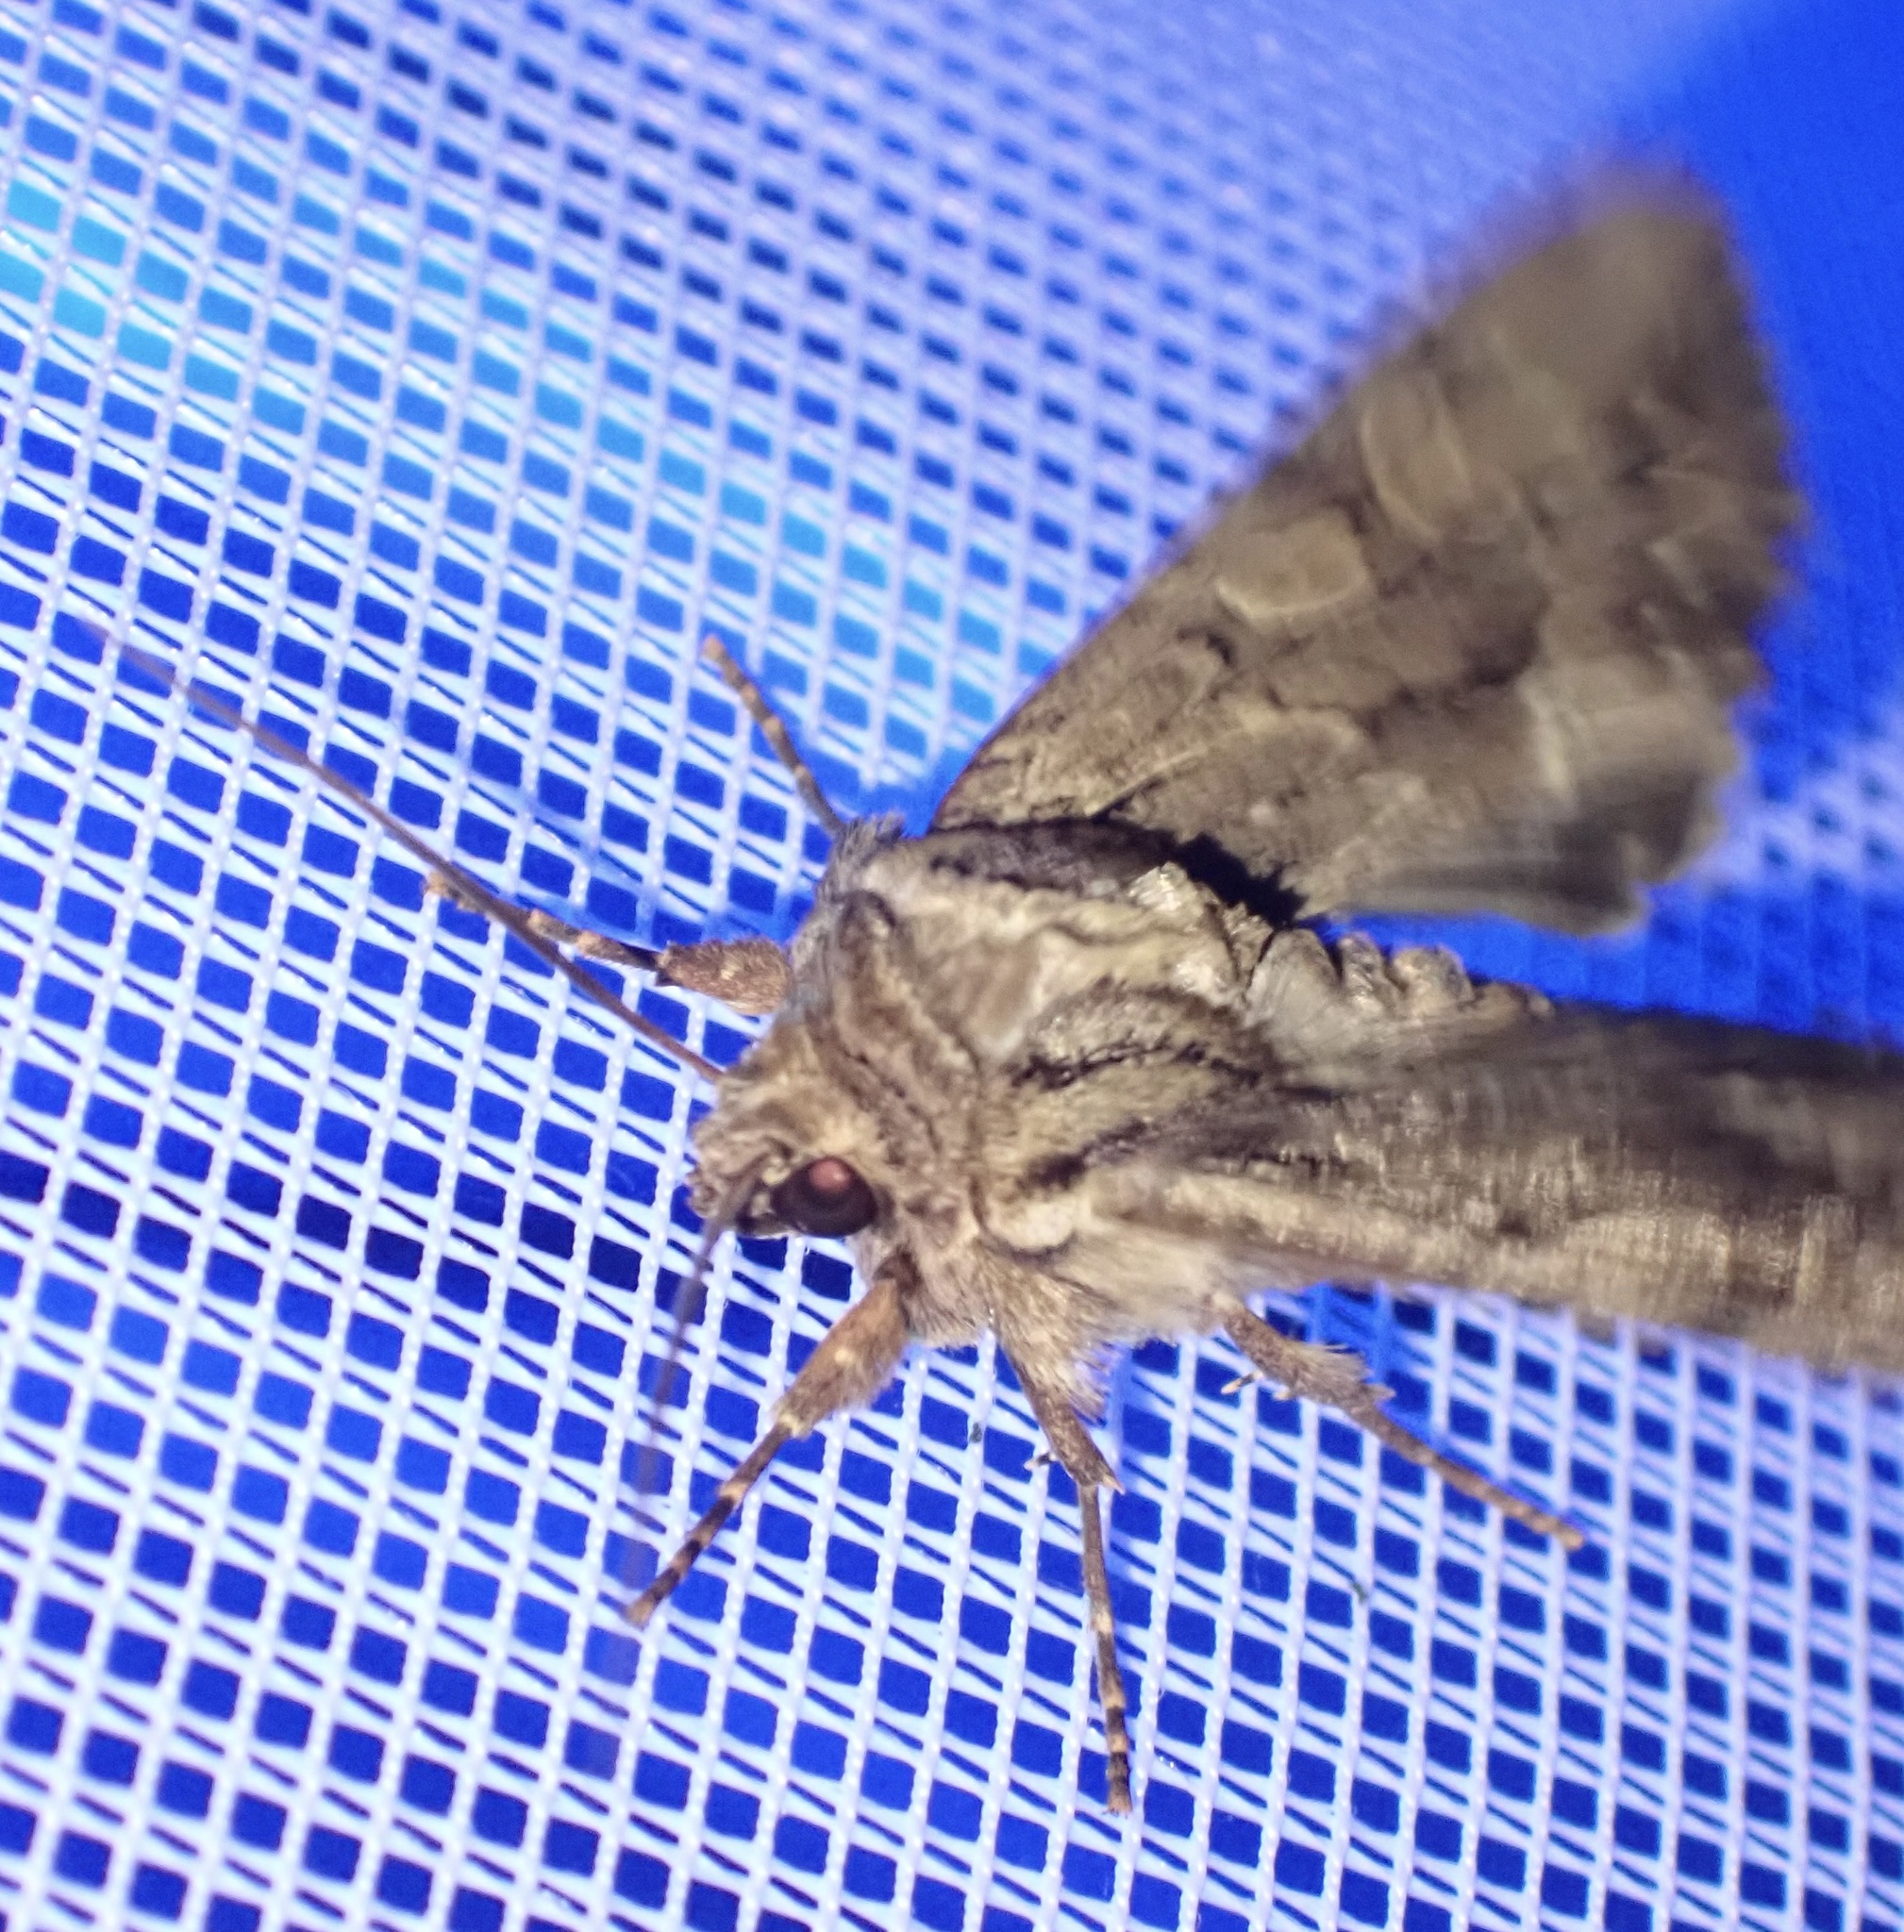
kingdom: Animalia
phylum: Arthropoda
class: Insecta
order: Lepidoptera
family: Noctuidae
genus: Apamea
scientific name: Apamea monoglypha
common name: Dark arches
